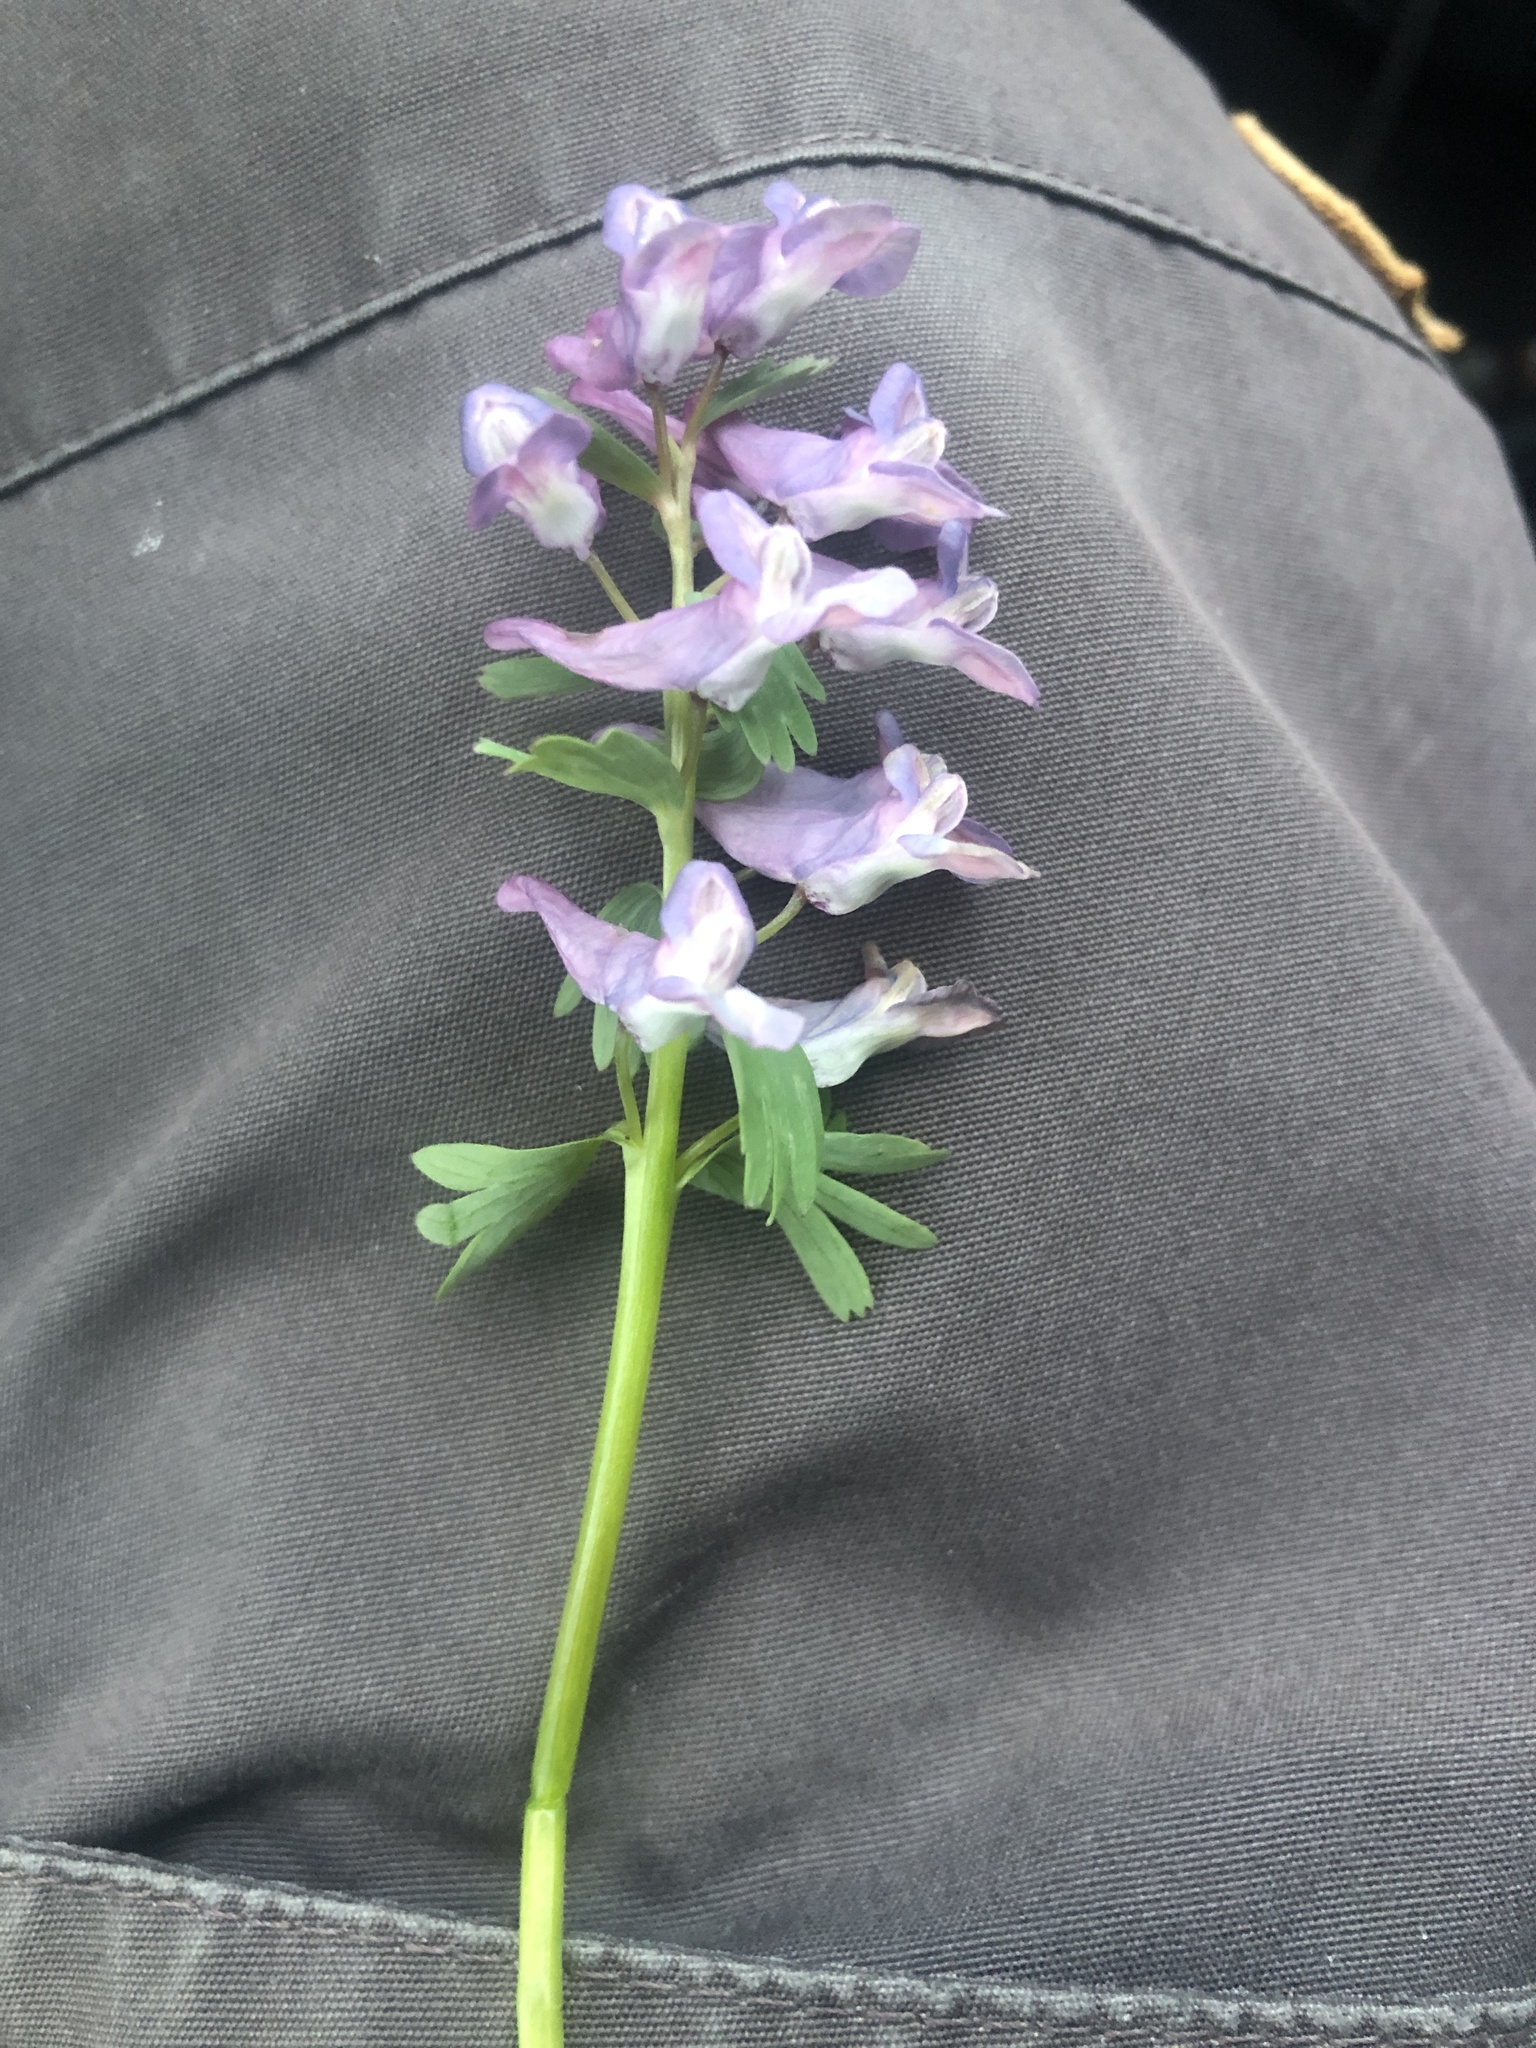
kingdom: Plantae
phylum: Tracheophyta
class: Magnoliopsida
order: Ranunculales
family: Papaveraceae
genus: Corydalis
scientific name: Corydalis solida
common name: Bird-in-a-bush
